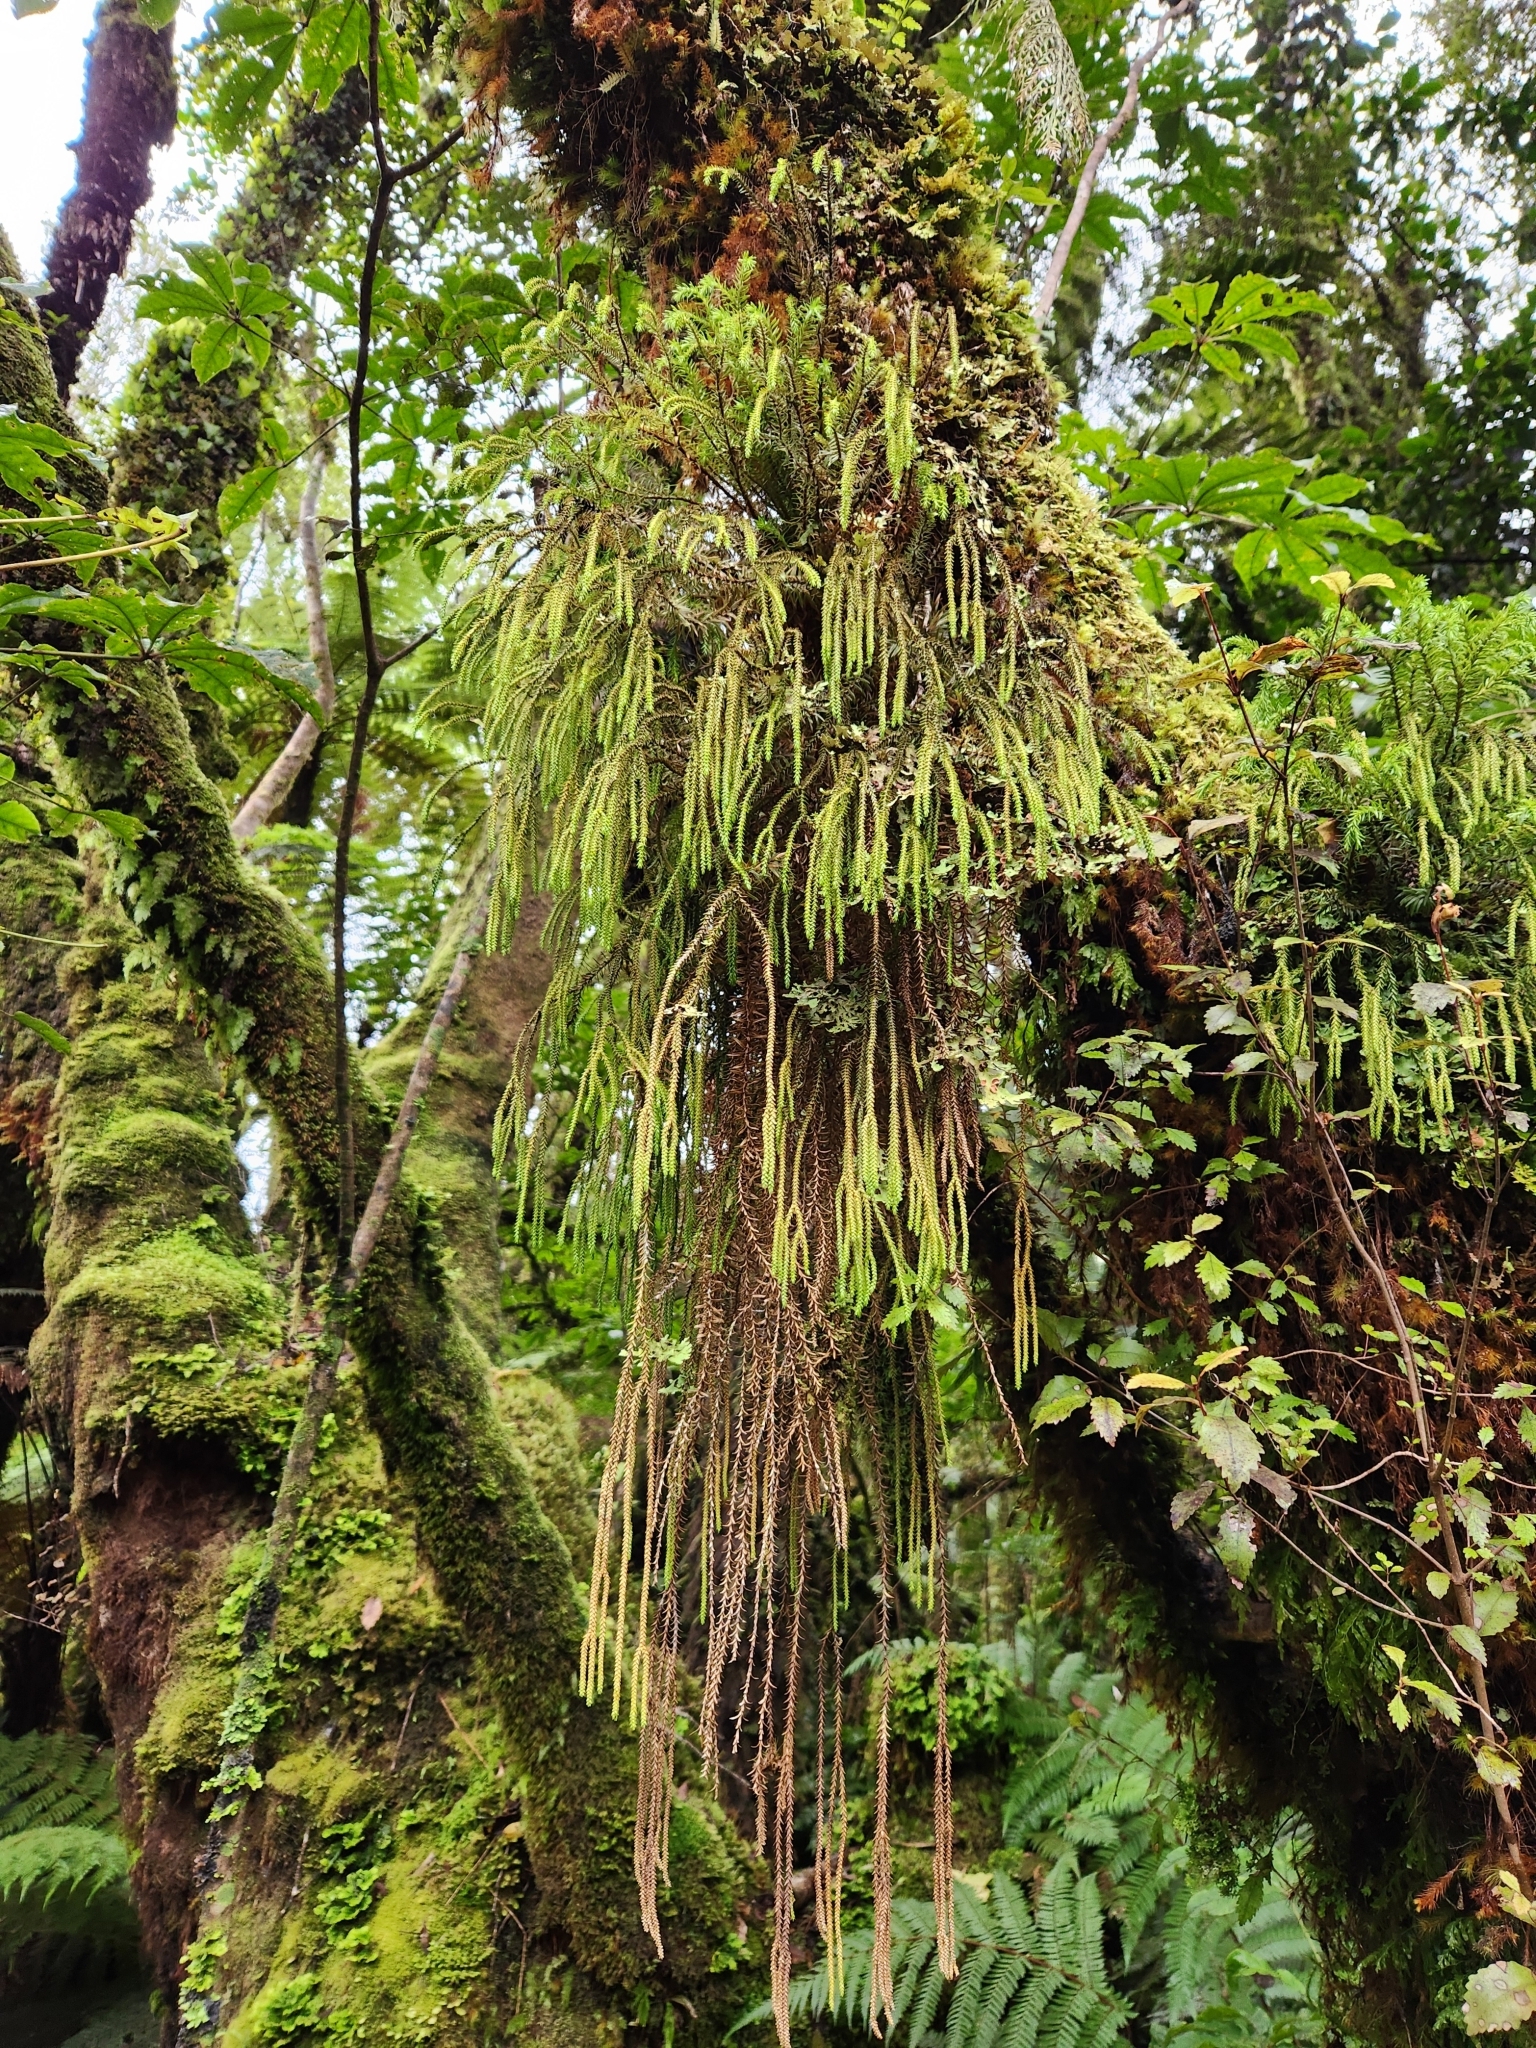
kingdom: Plantae
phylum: Tracheophyta
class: Lycopodiopsida
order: Lycopodiales
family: Lycopodiaceae
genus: Phlegmariurus
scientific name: Phlegmariurus varius
